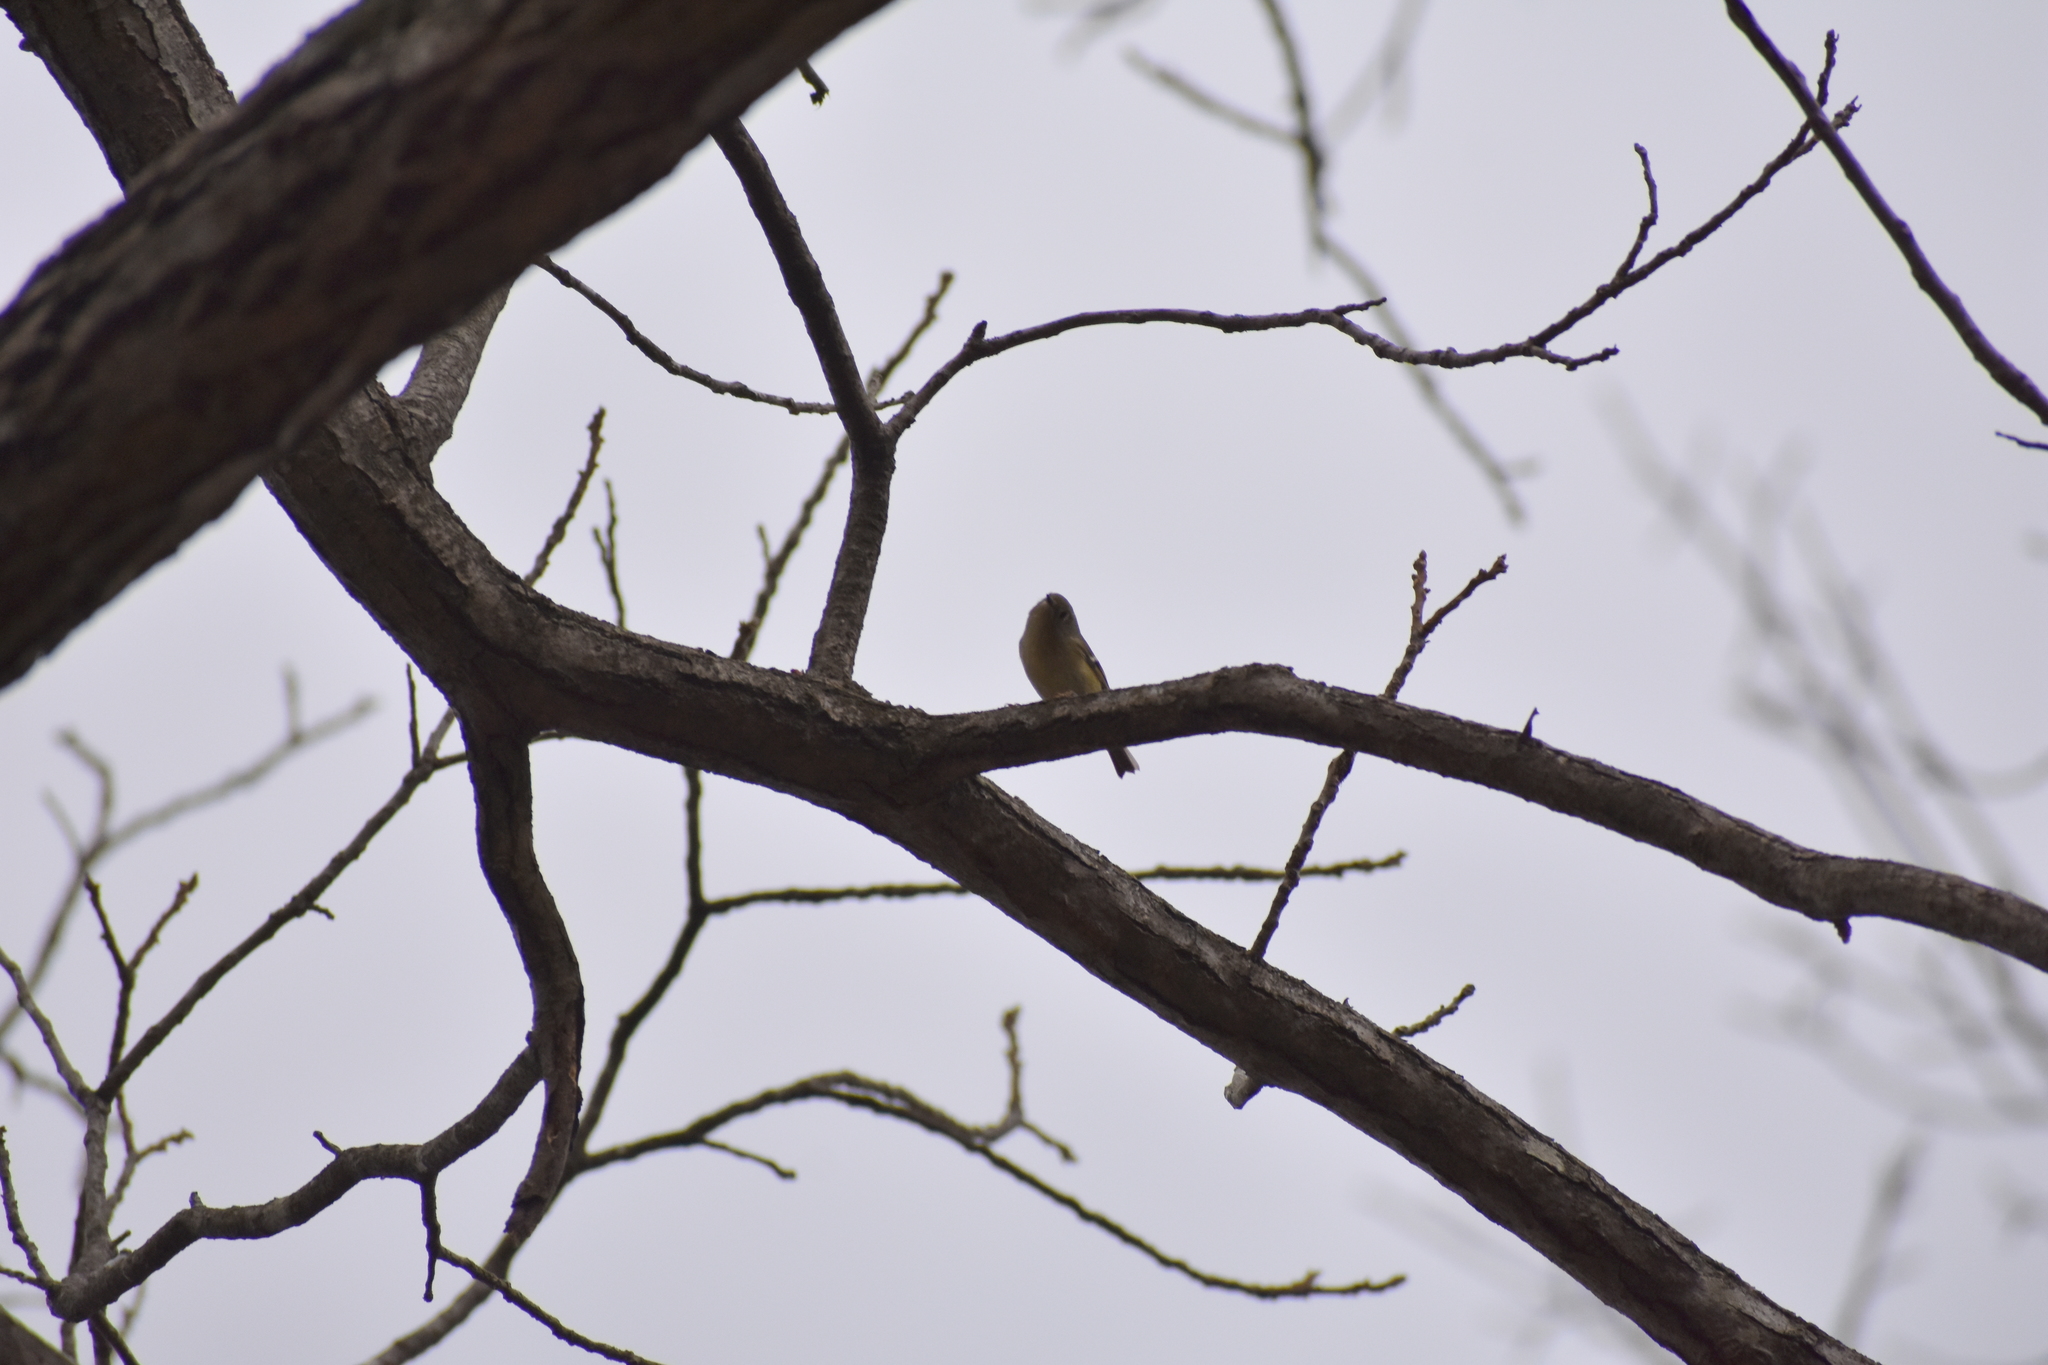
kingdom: Animalia
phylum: Chordata
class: Aves
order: Passeriformes
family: Regulidae
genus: Regulus
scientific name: Regulus calendula
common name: Ruby-crowned kinglet
